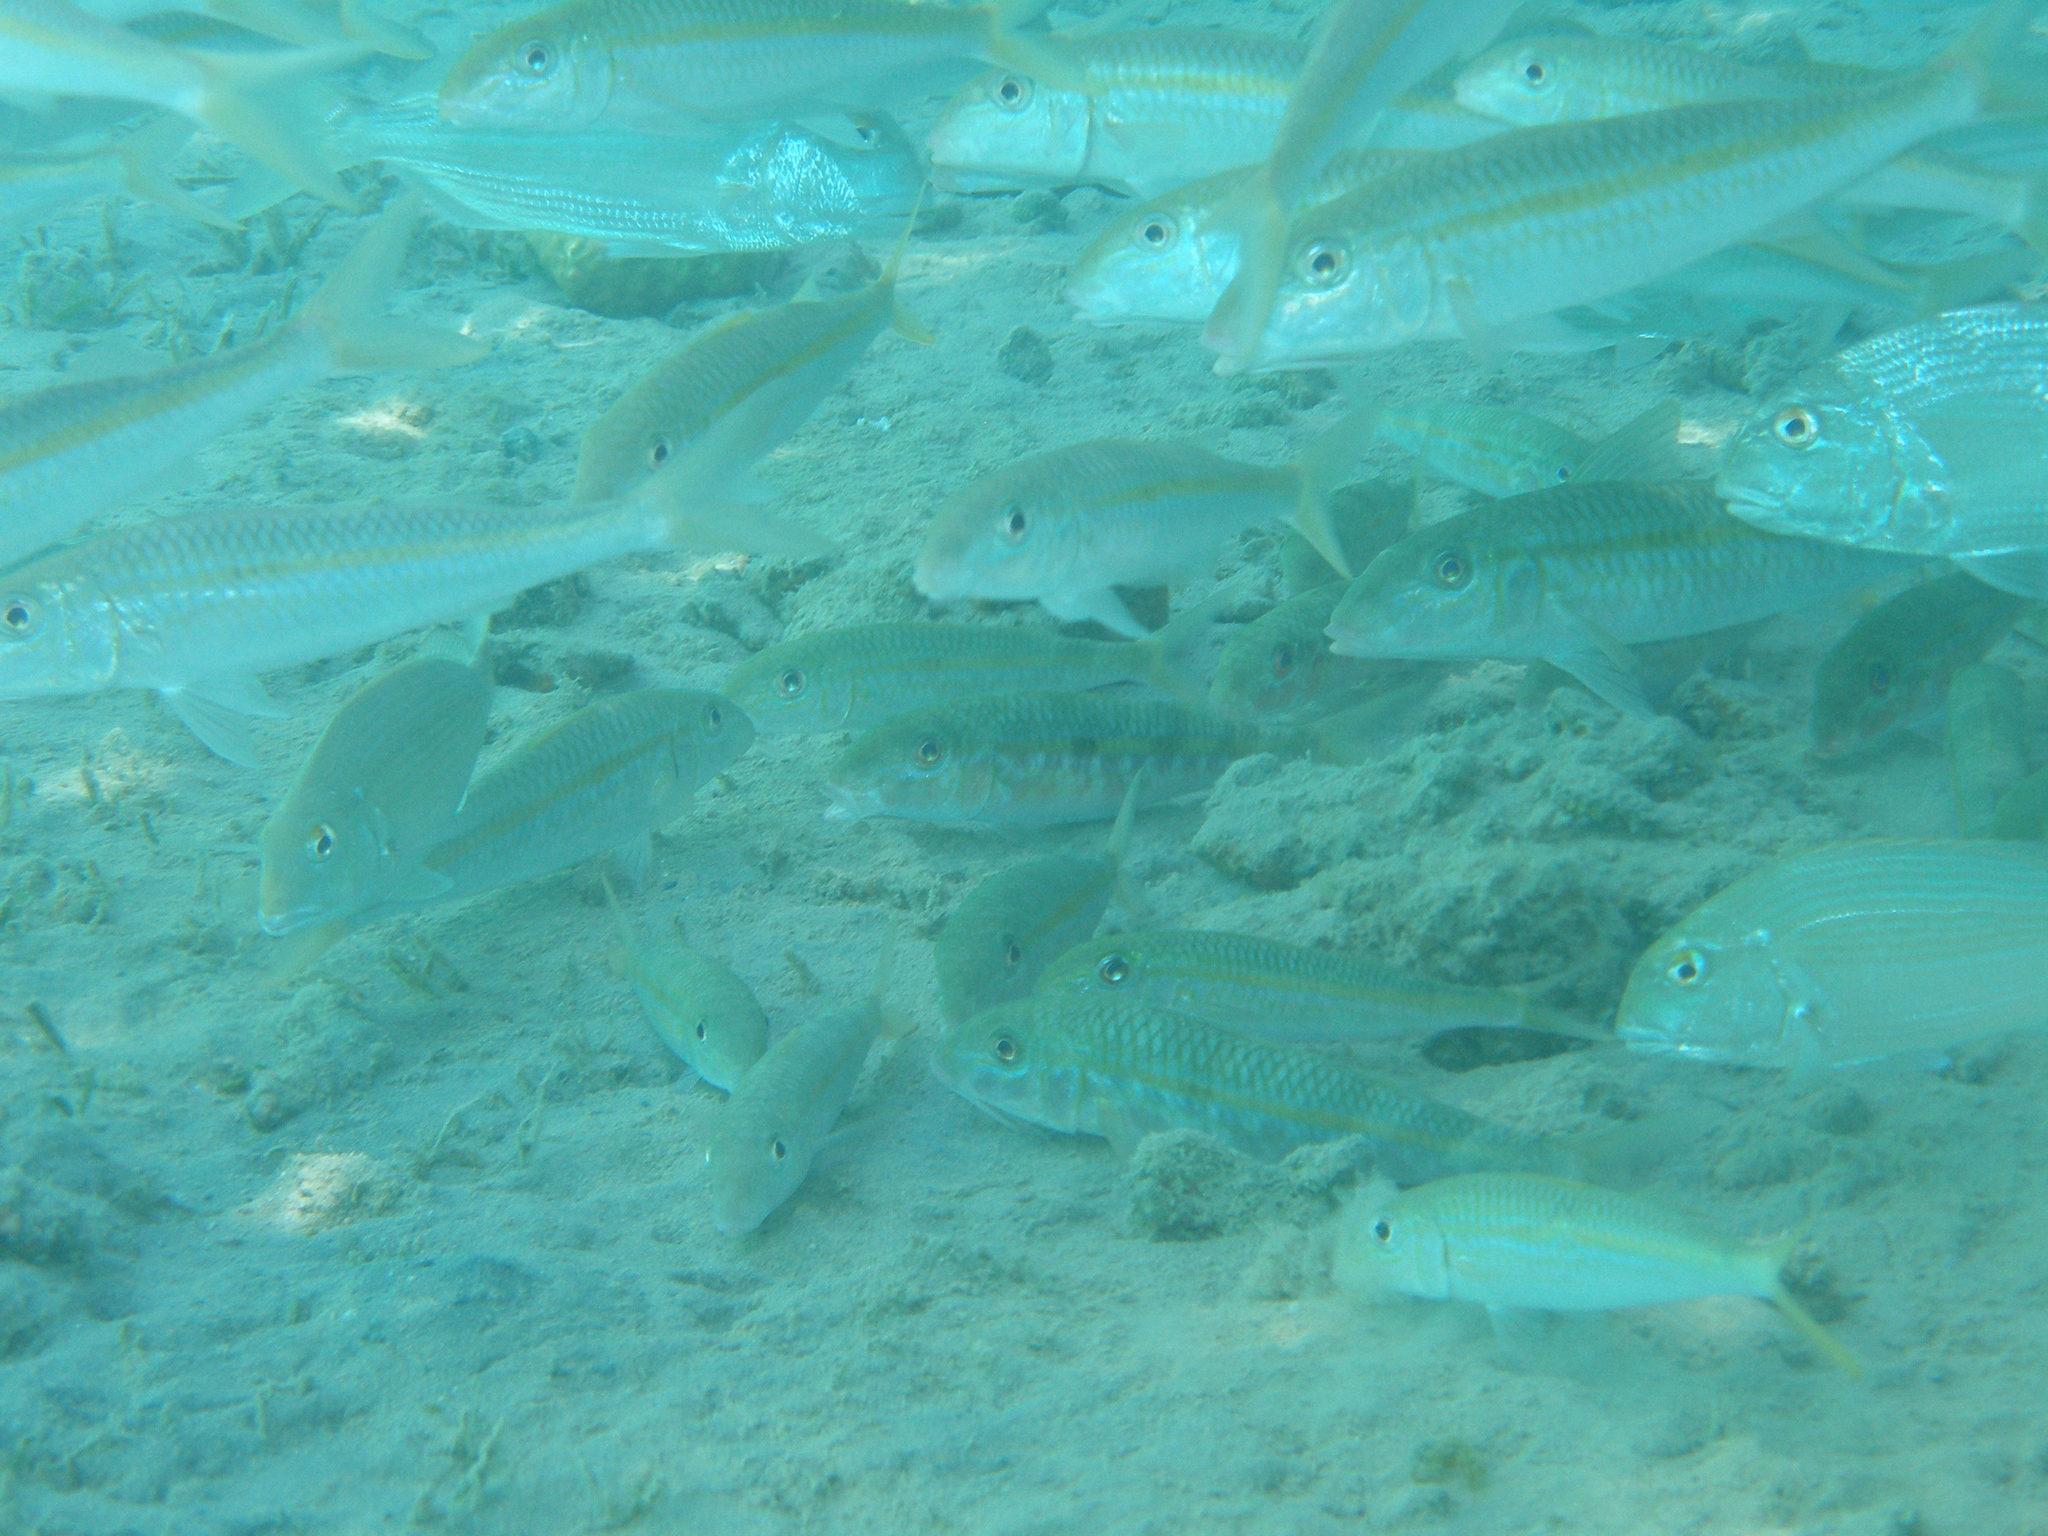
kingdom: Animalia
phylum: Chordata
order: Perciformes
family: Mullidae
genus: Mulloidichthys
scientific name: Mulloidichthys flavolineatus
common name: Yellowstripe goatfish
